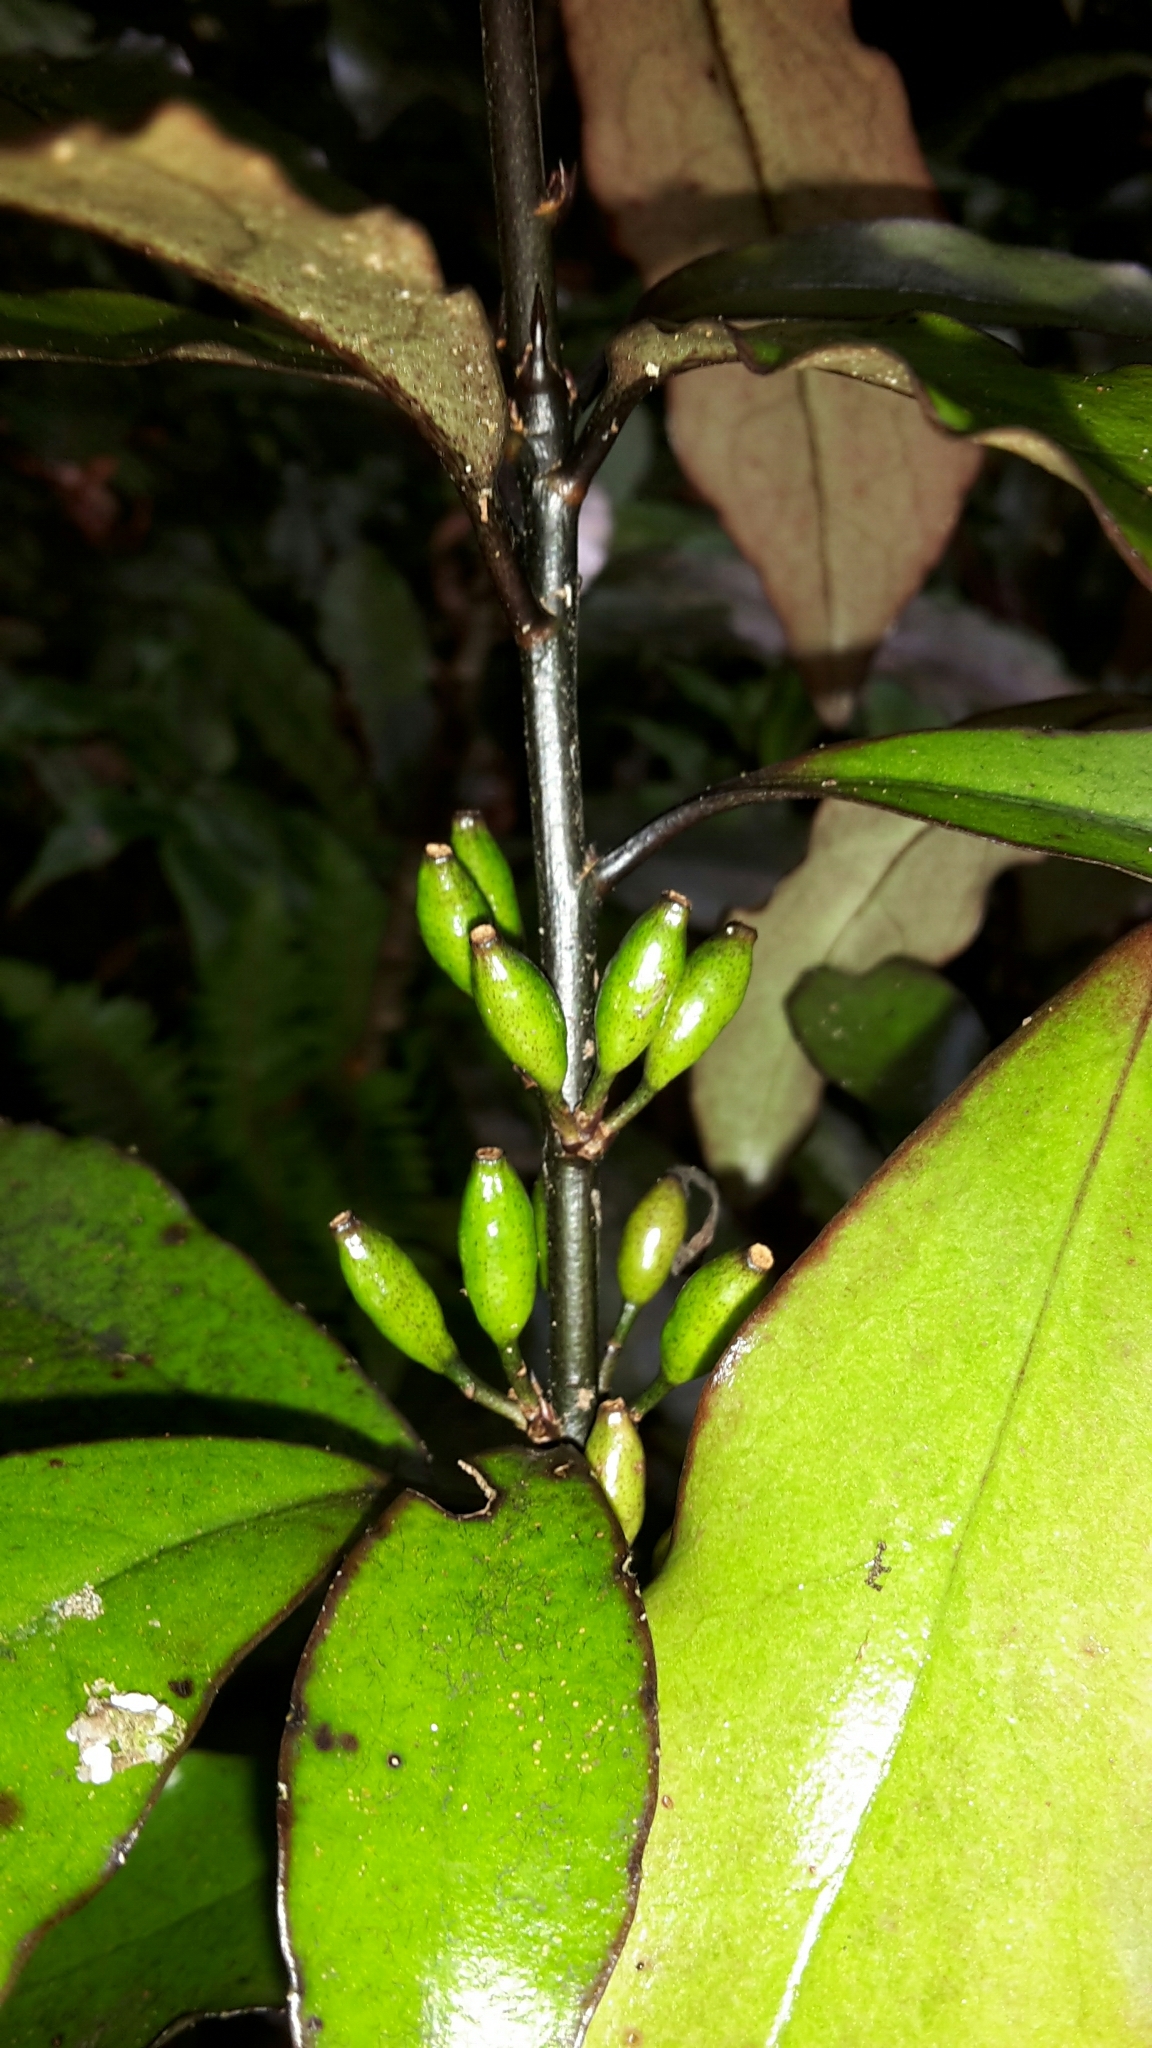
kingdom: Plantae
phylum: Tracheophyta
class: Magnoliopsida
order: Asterales
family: Alseuosmiaceae
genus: Alseuosmia
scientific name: Alseuosmia pusilla
